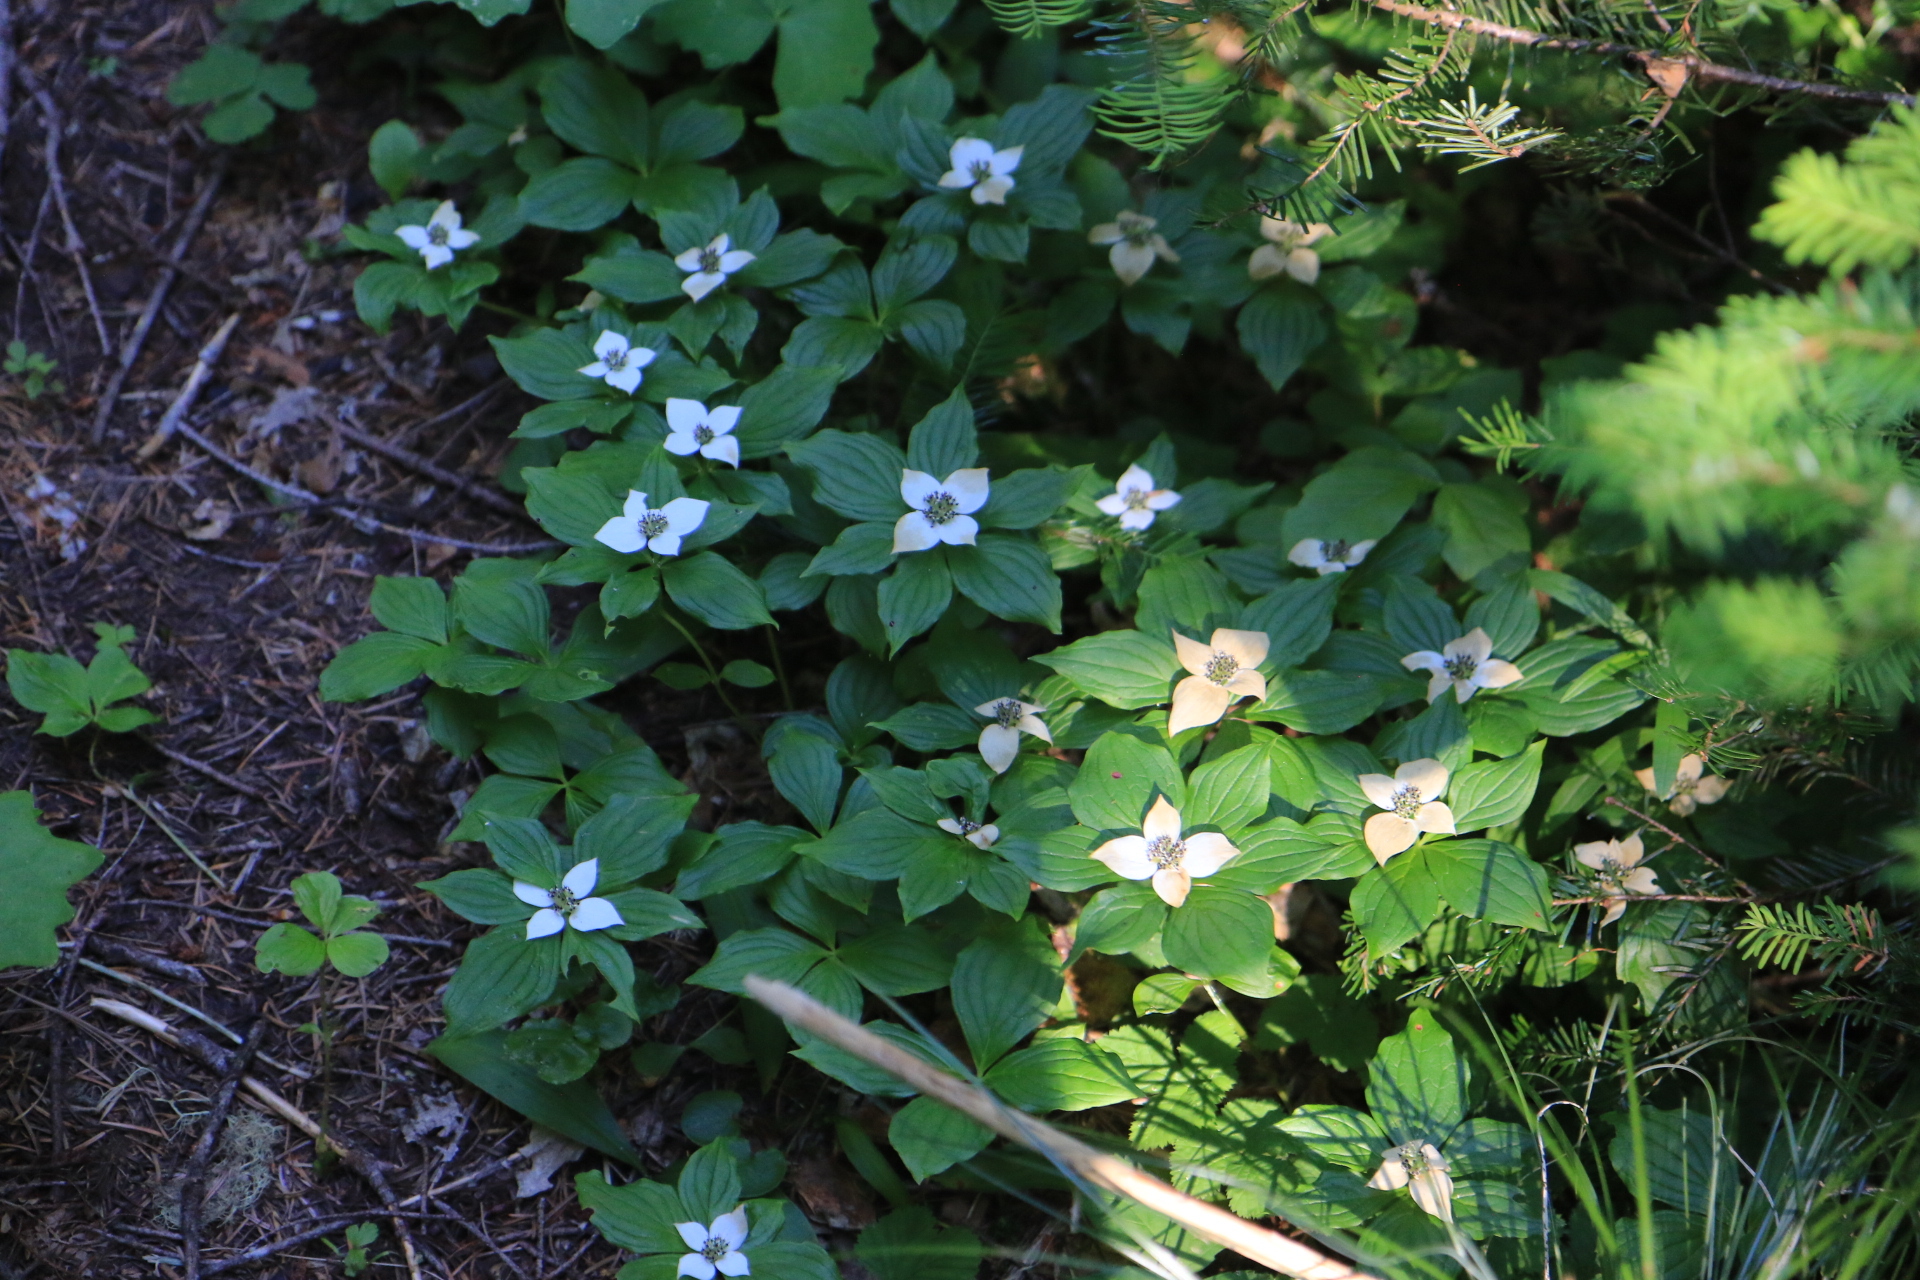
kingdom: Plantae
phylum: Tracheophyta
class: Magnoliopsida
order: Cornales
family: Cornaceae
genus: Cornus
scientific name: Cornus unalaschkensis
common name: Alaska bunchberry
